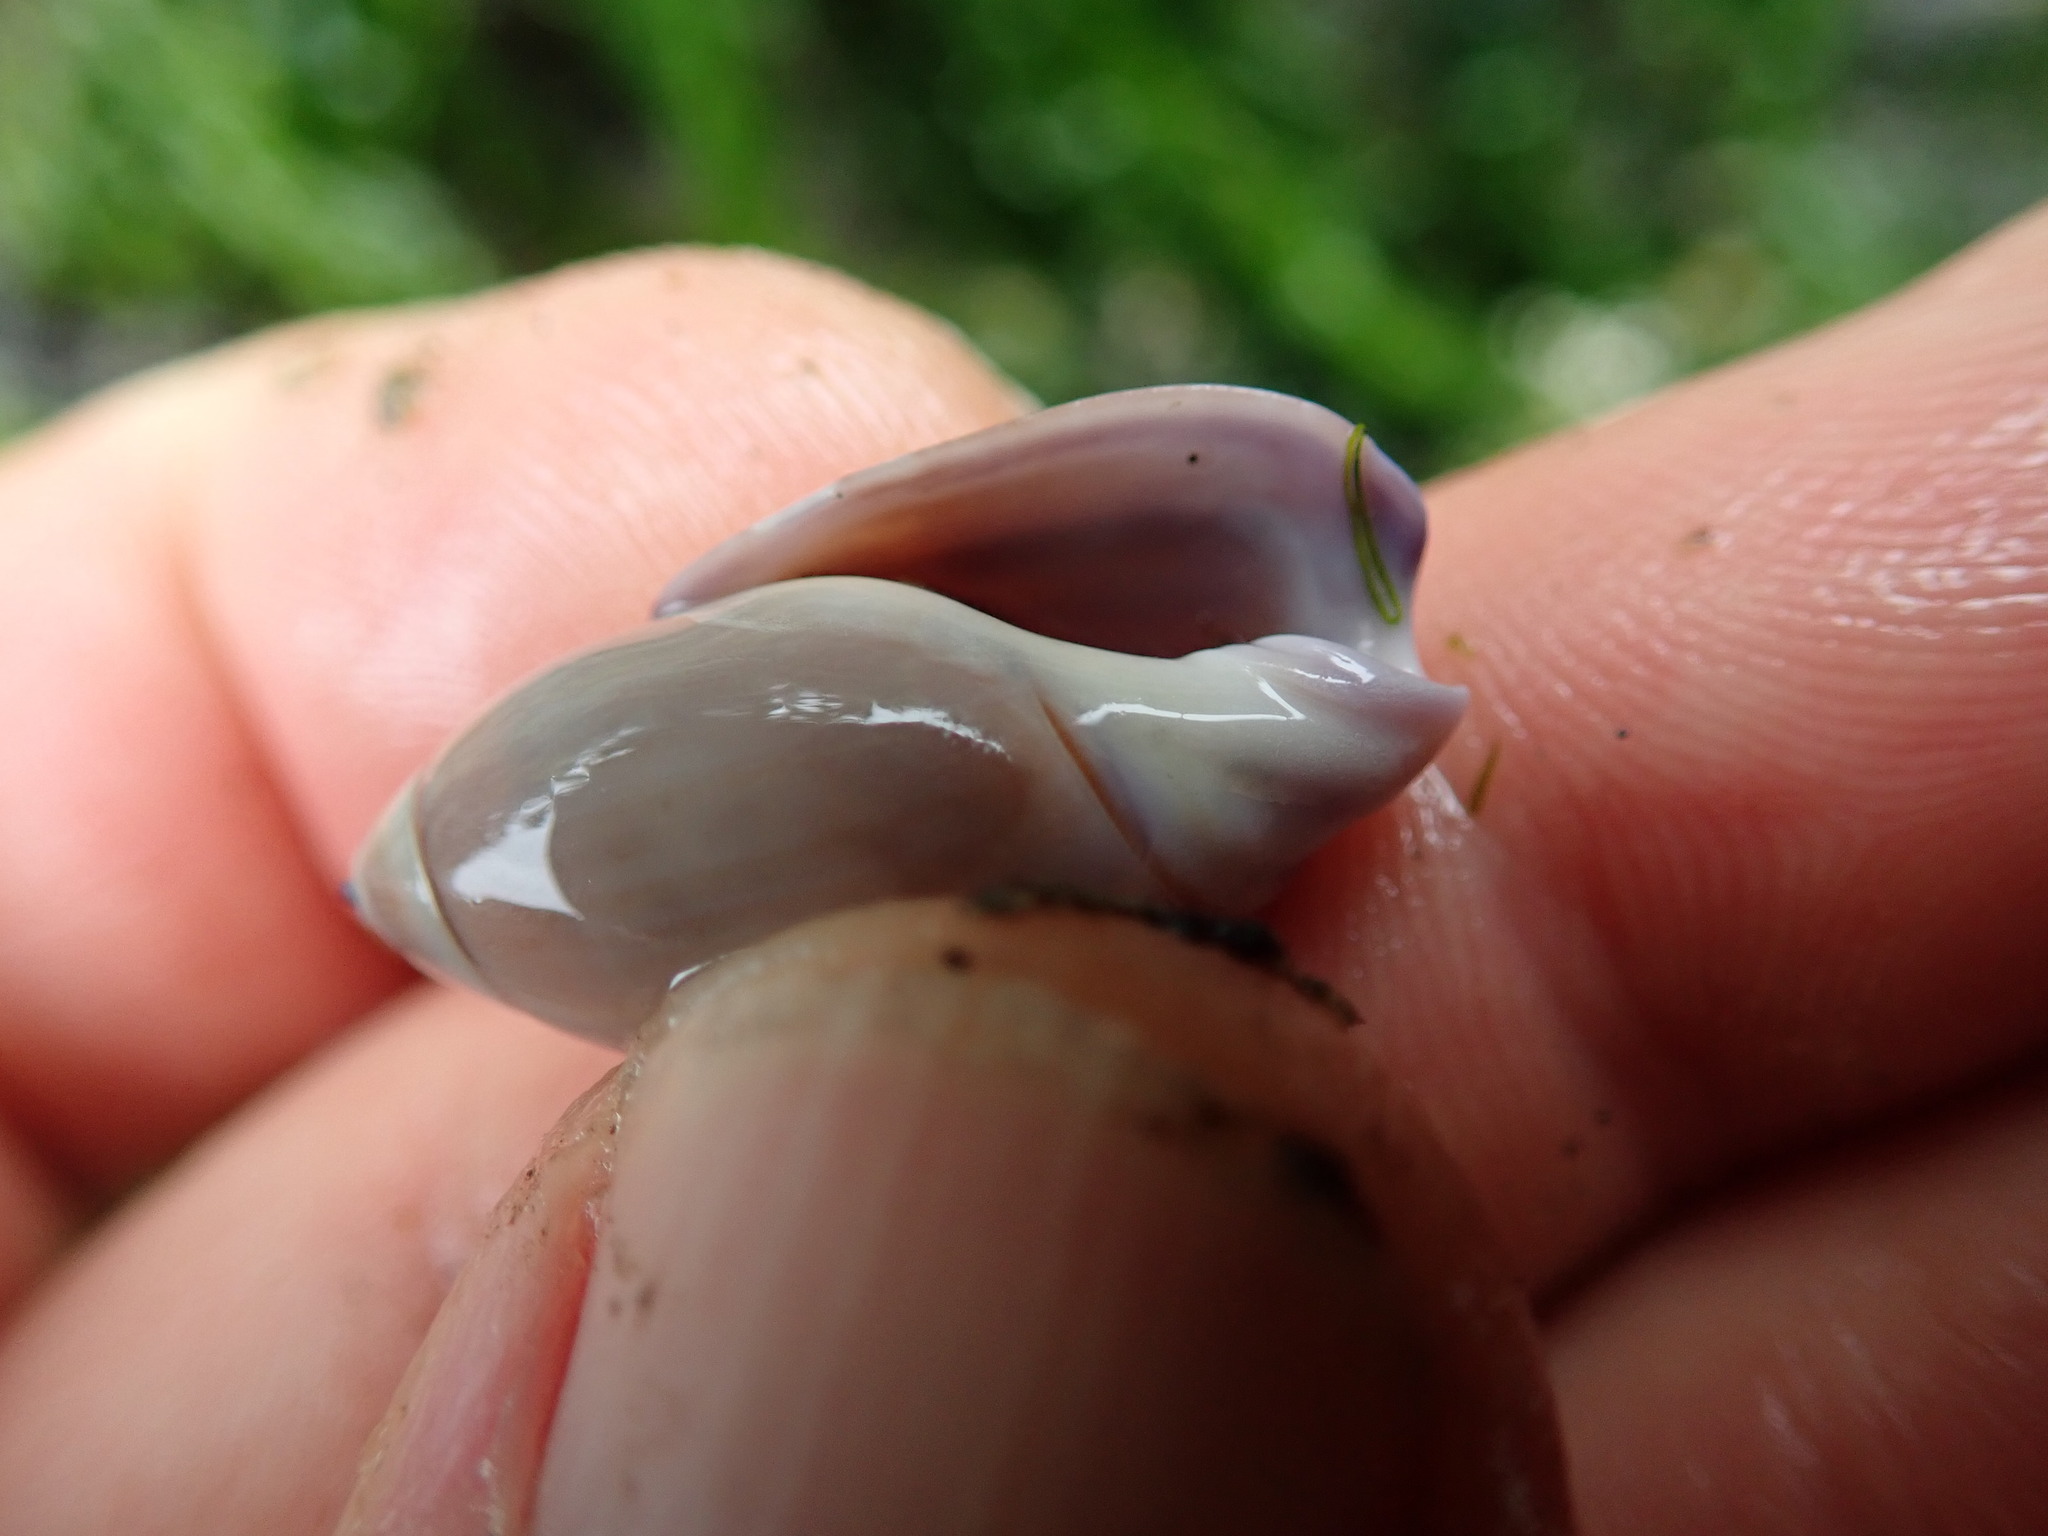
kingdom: Animalia
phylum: Mollusca
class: Gastropoda
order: Neogastropoda
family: Olividae
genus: Callianax
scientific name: Callianax biplicata
